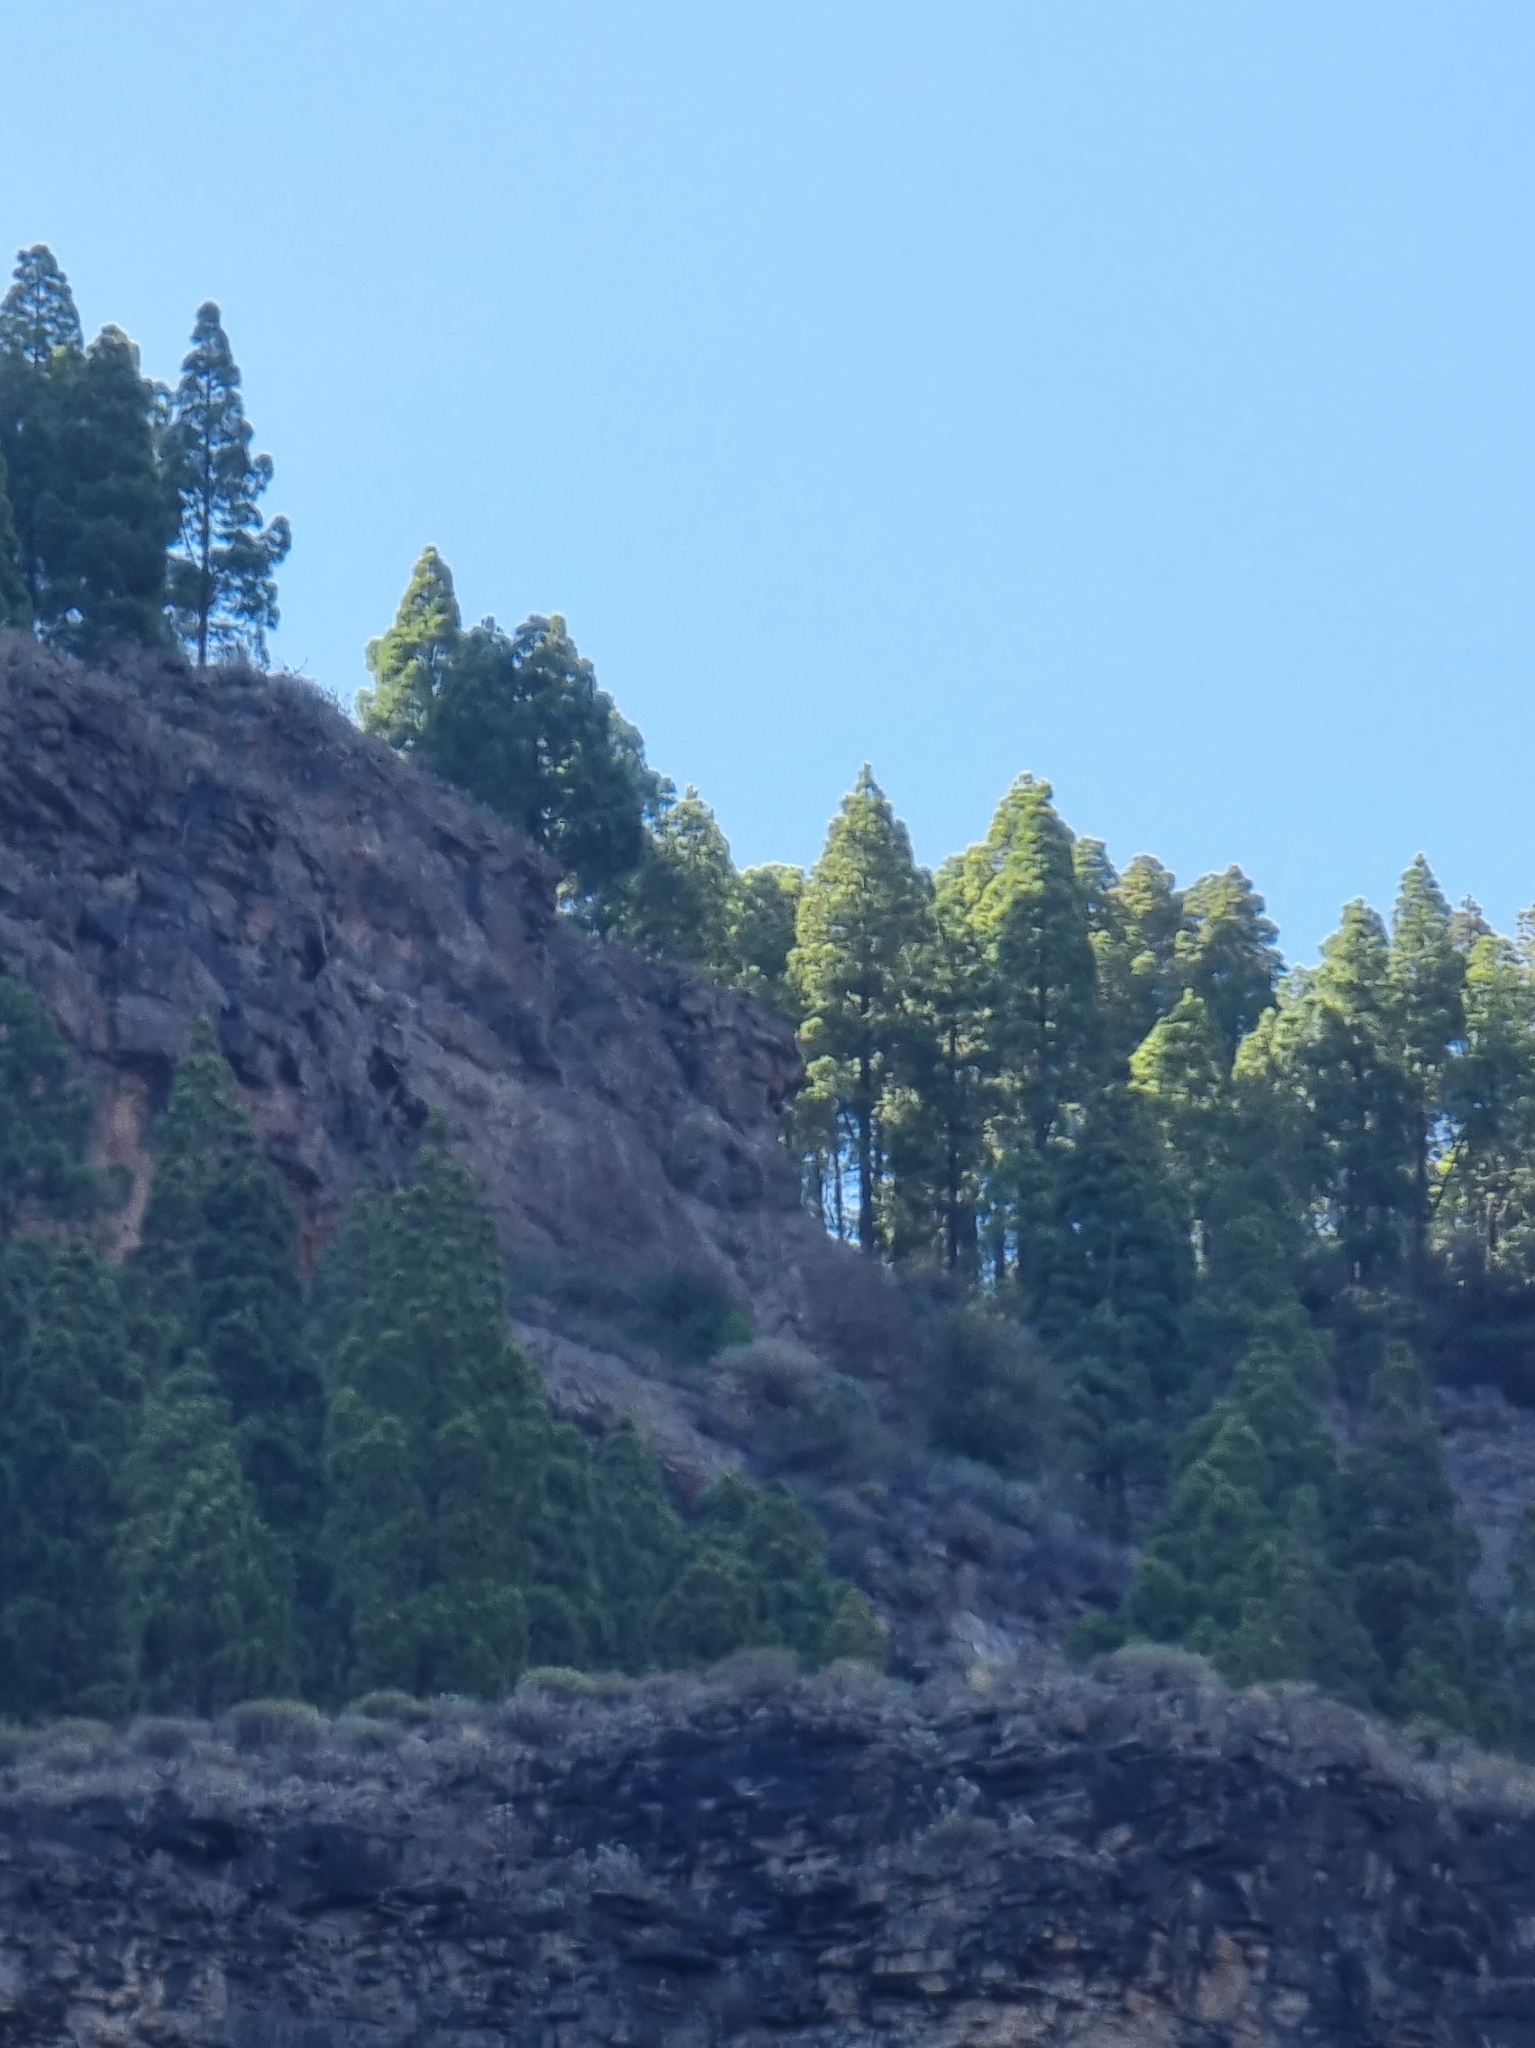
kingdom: Plantae
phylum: Tracheophyta
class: Pinopsida
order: Pinales
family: Pinaceae
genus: Pinus
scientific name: Pinus canariensis
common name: Canary islands pine
